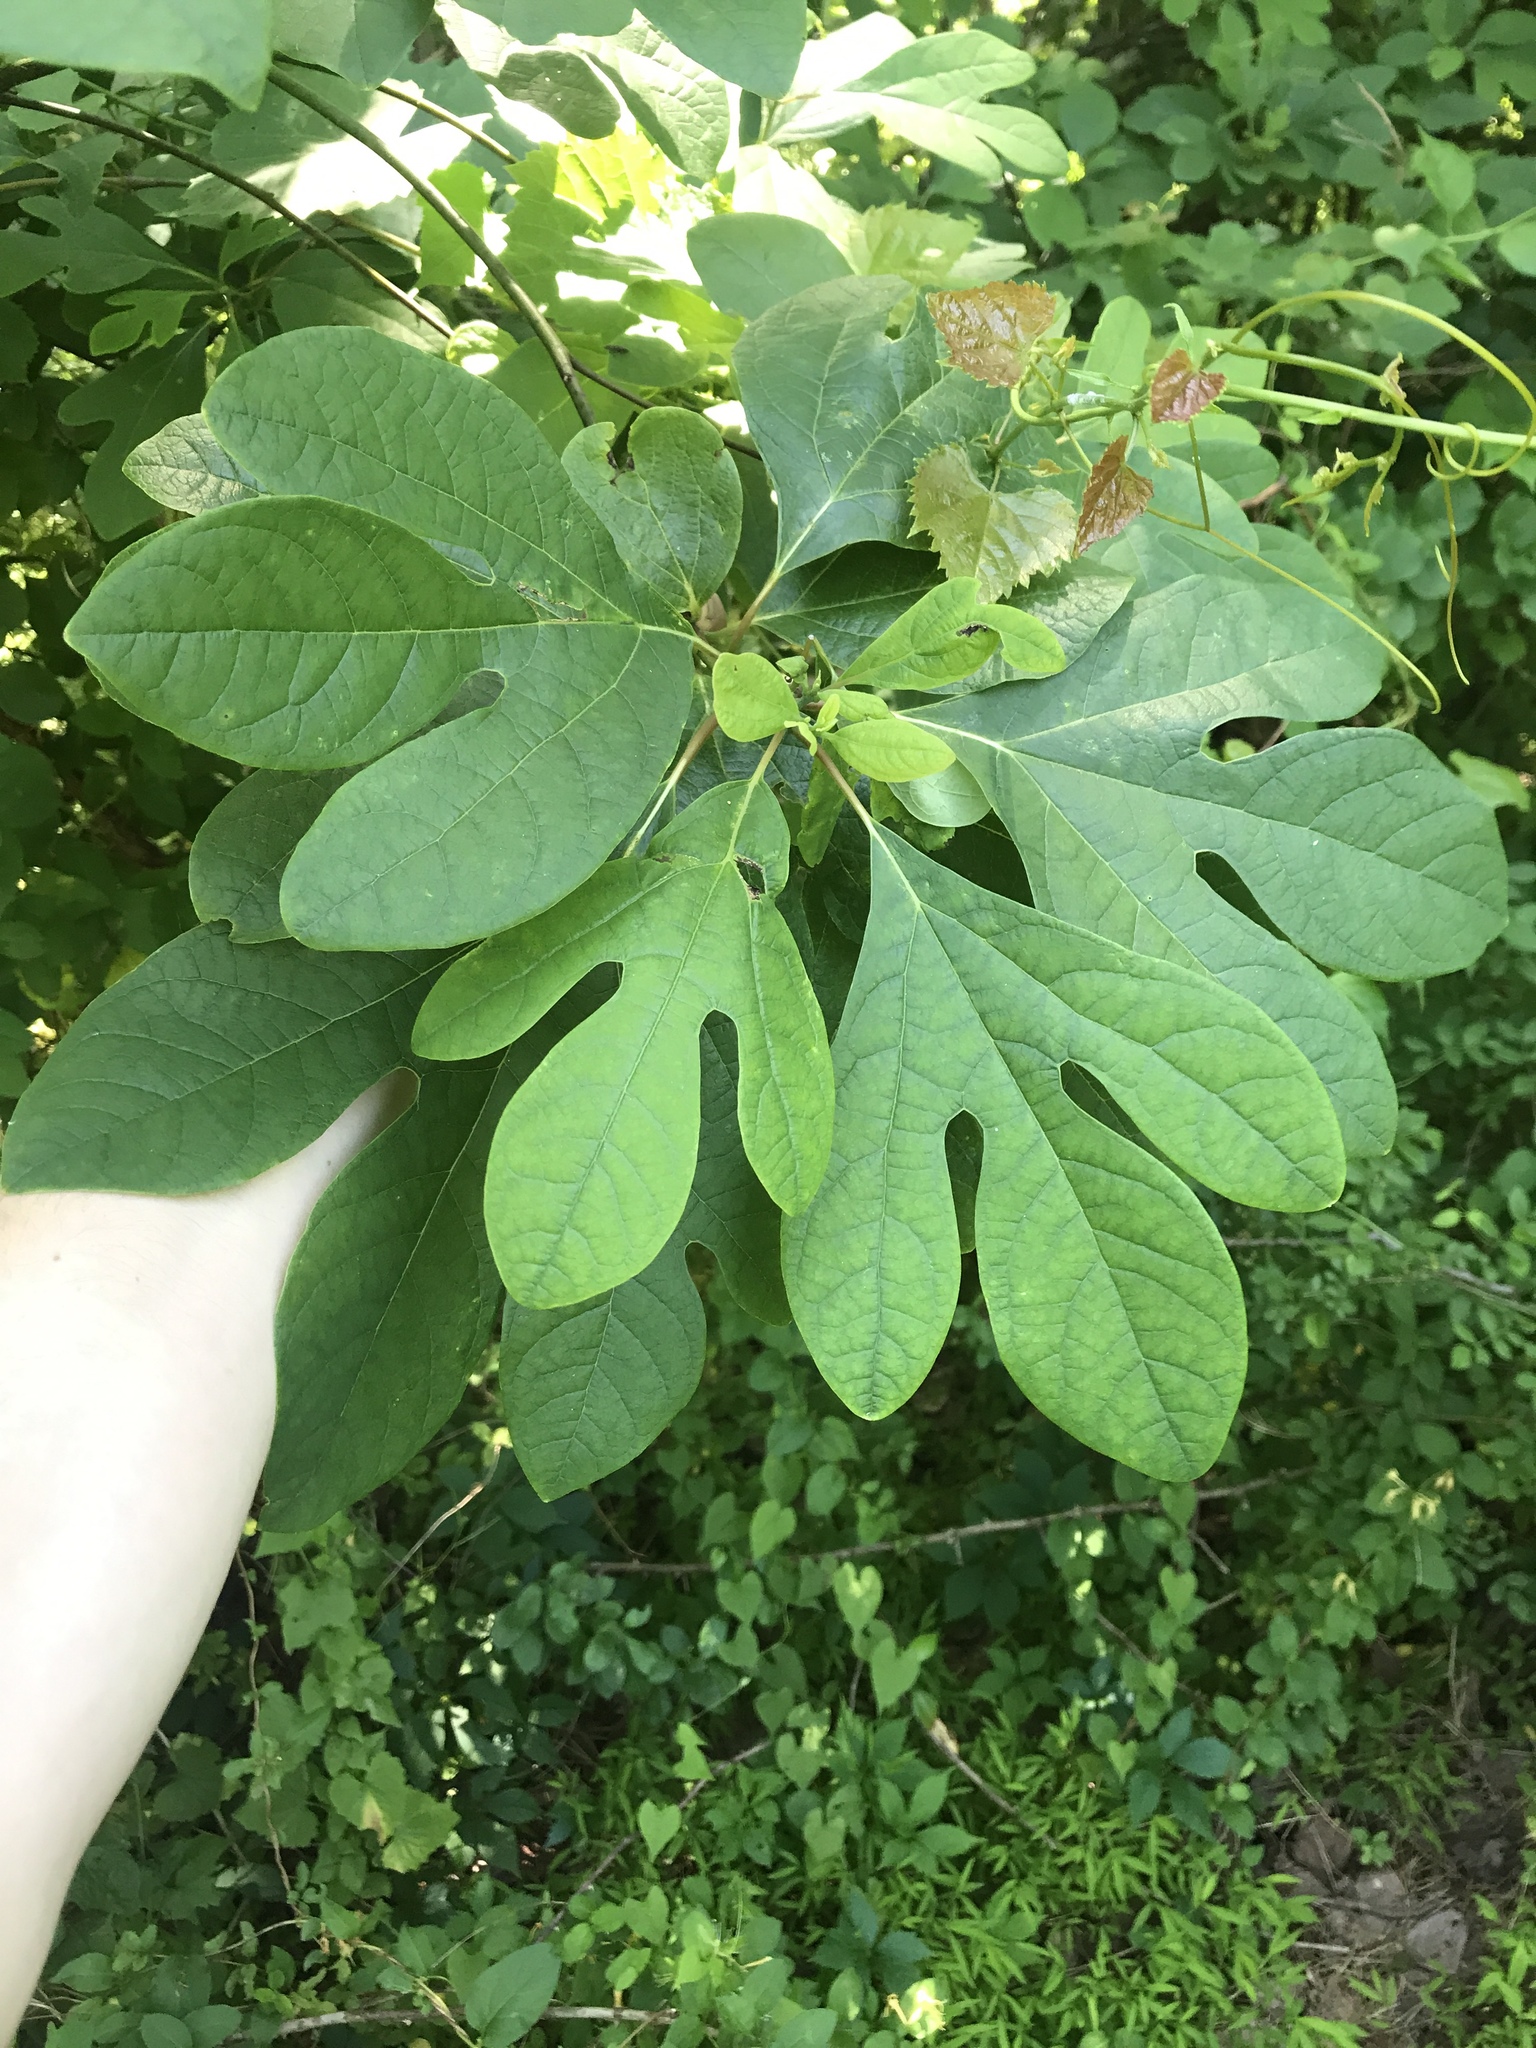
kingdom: Plantae
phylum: Tracheophyta
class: Magnoliopsida
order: Laurales
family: Lauraceae
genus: Sassafras
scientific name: Sassafras albidum
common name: Sassafras
